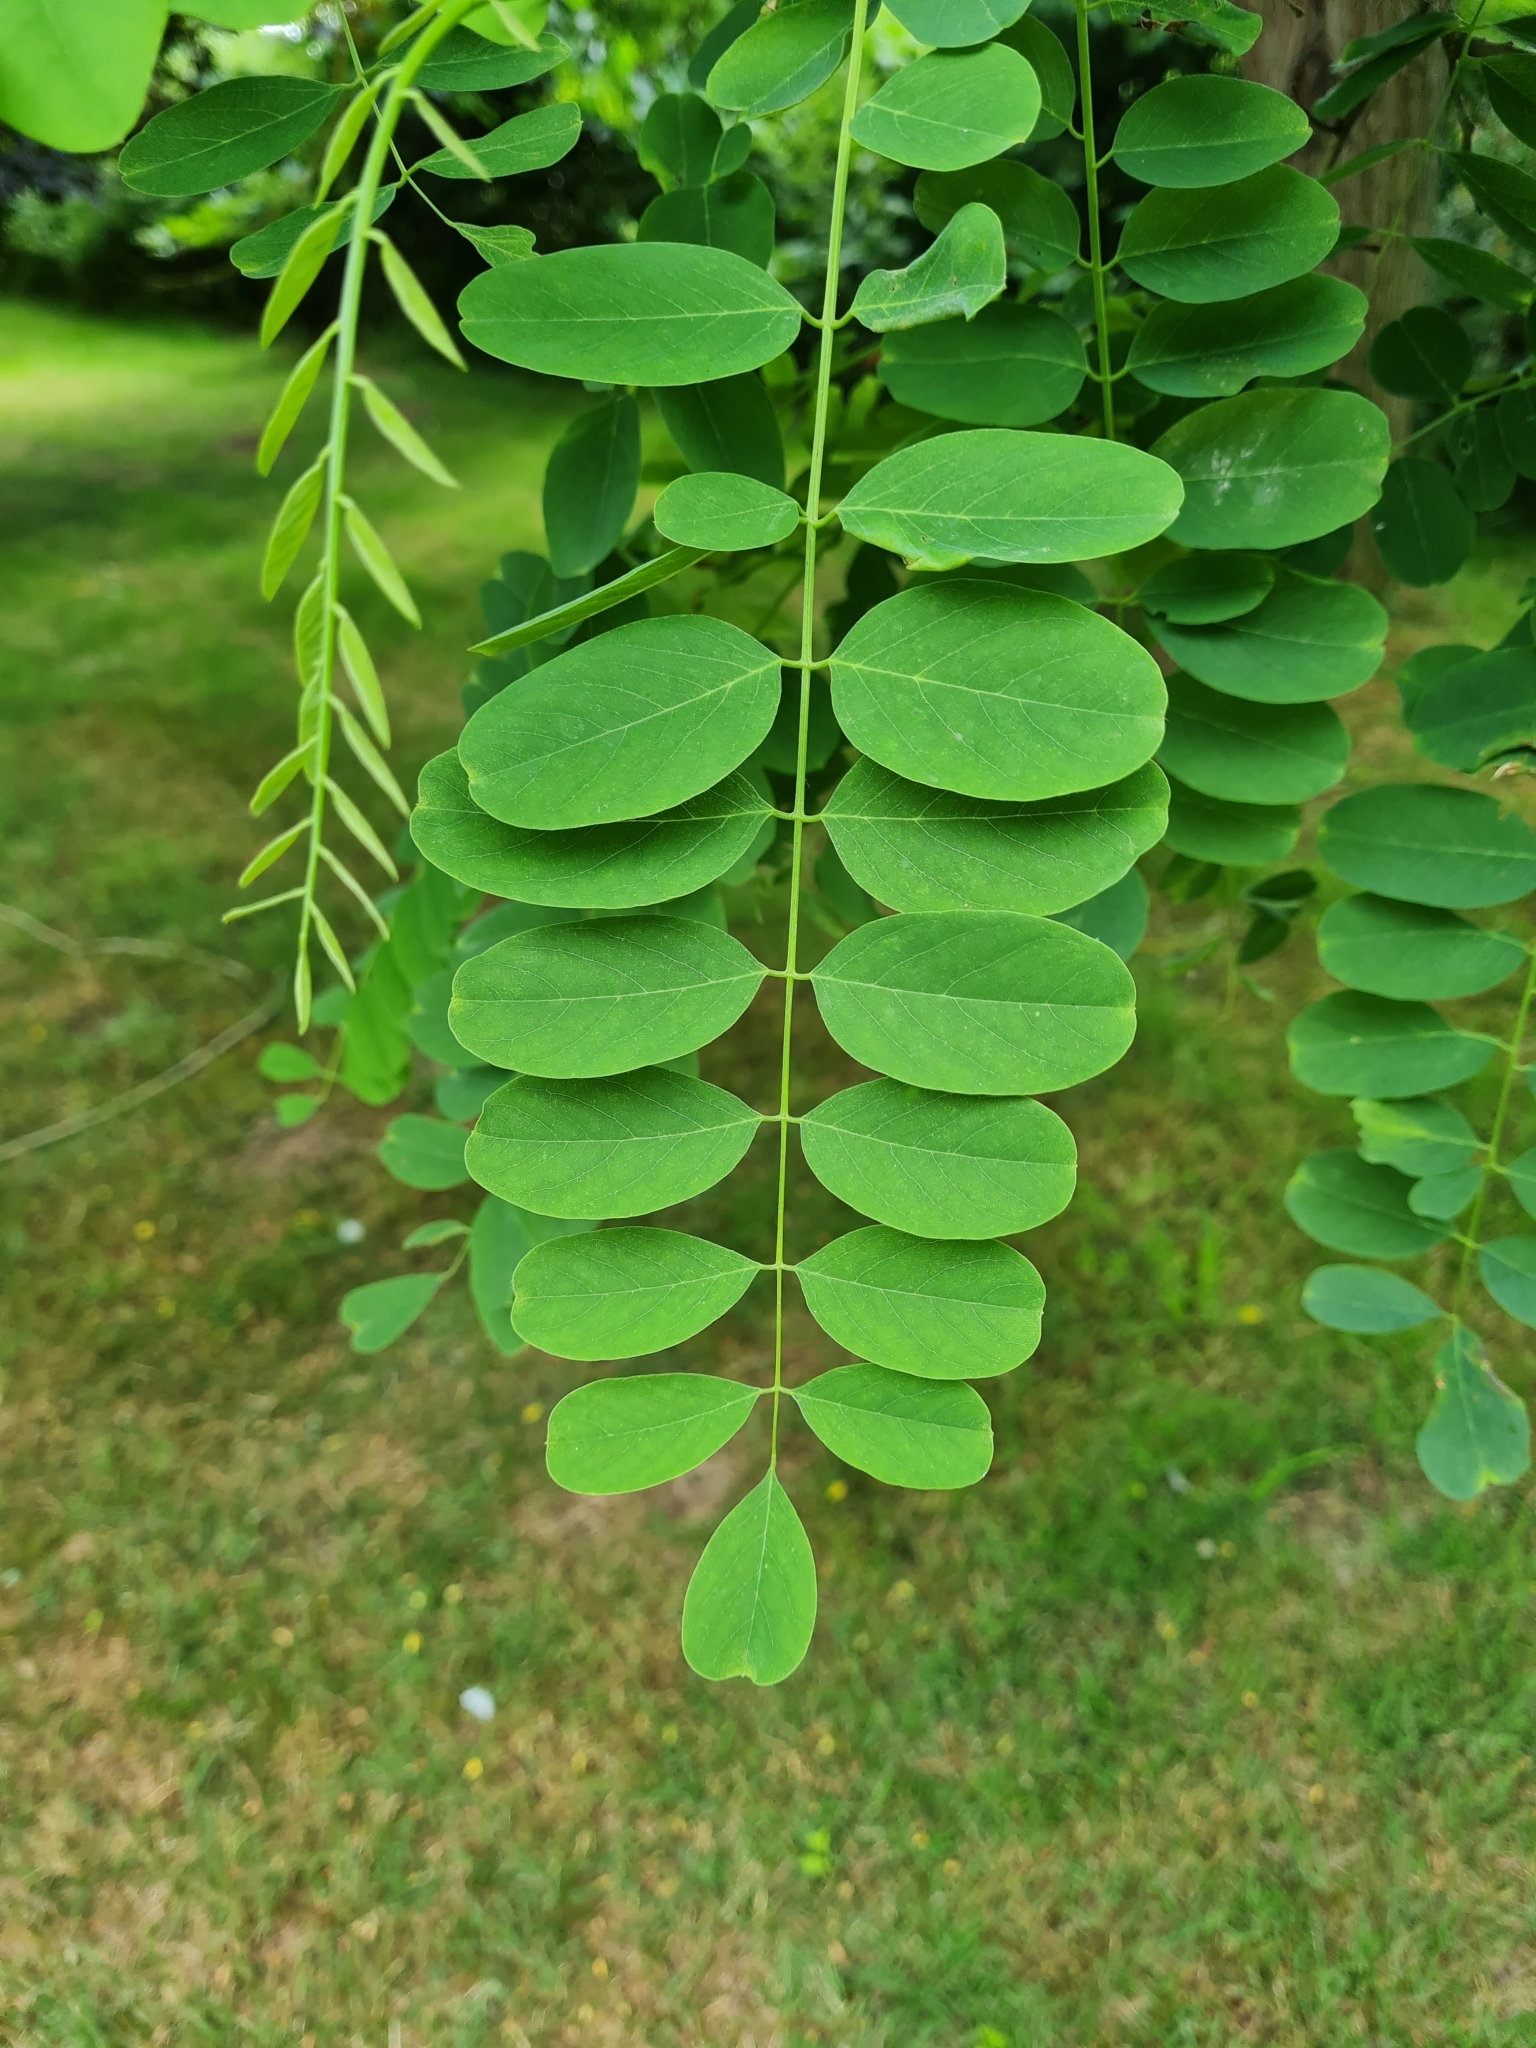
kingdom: Plantae
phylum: Tracheophyta
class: Magnoliopsida
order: Fabales
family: Fabaceae
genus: Robinia
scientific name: Robinia pseudoacacia
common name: Black locust
